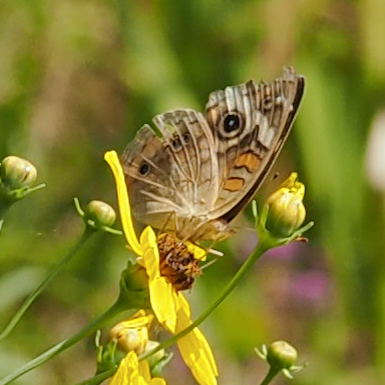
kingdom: Animalia
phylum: Arthropoda
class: Insecta
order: Lepidoptera
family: Nymphalidae
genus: Junonia
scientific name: Junonia coenia
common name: Common buckeye
